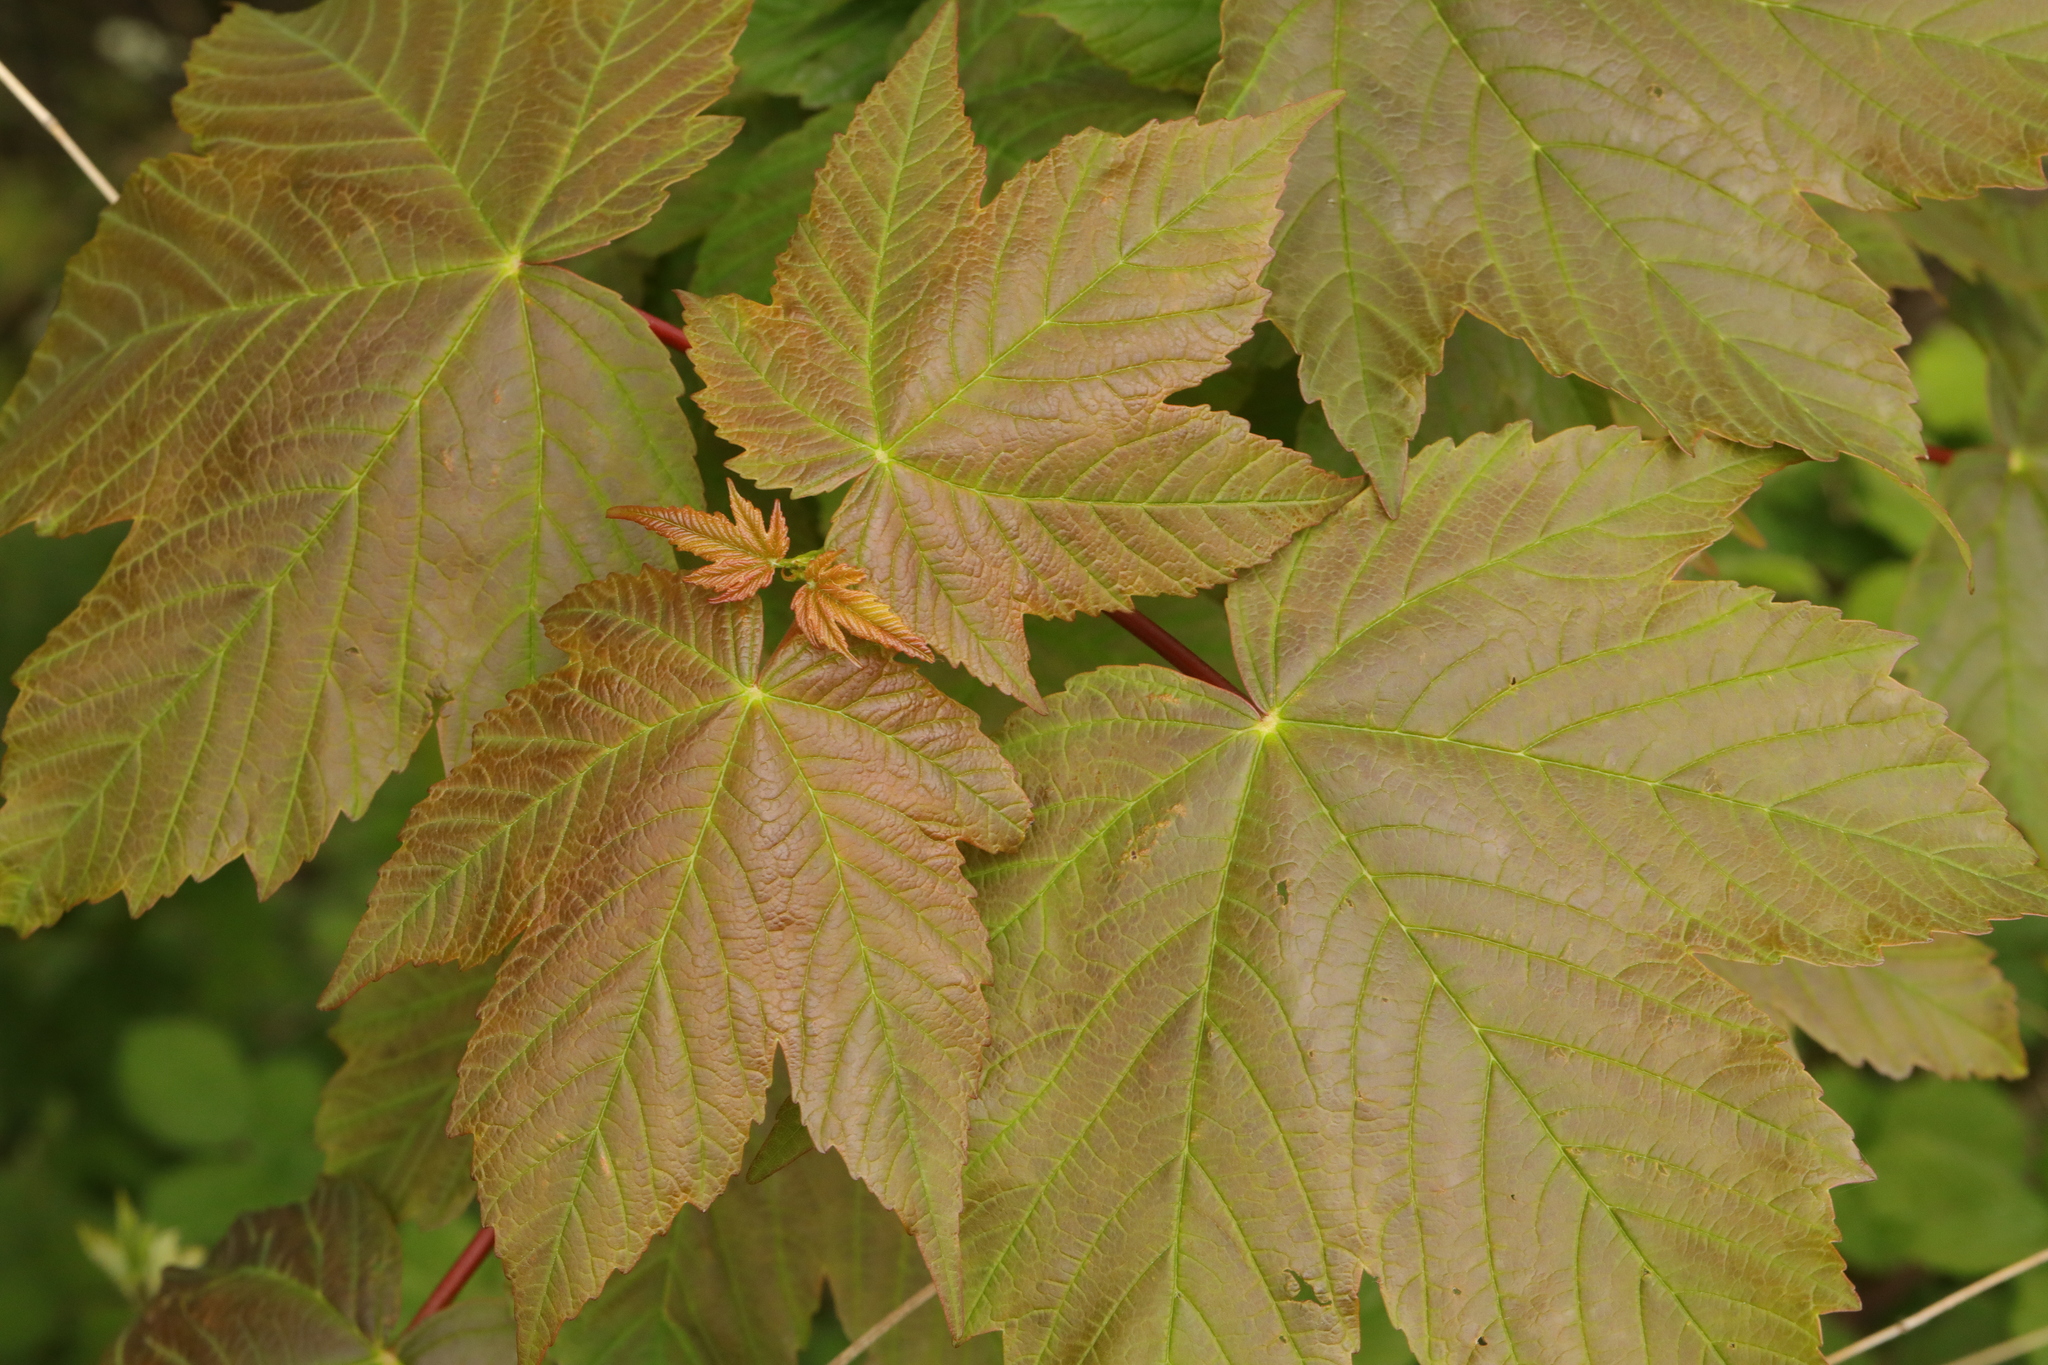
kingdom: Plantae
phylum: Tracheophyta
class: Magnoliopsida
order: Sapindales
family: Sapindaceae
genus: Acer
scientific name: Acer pseudoplatanus
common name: Sycamore
